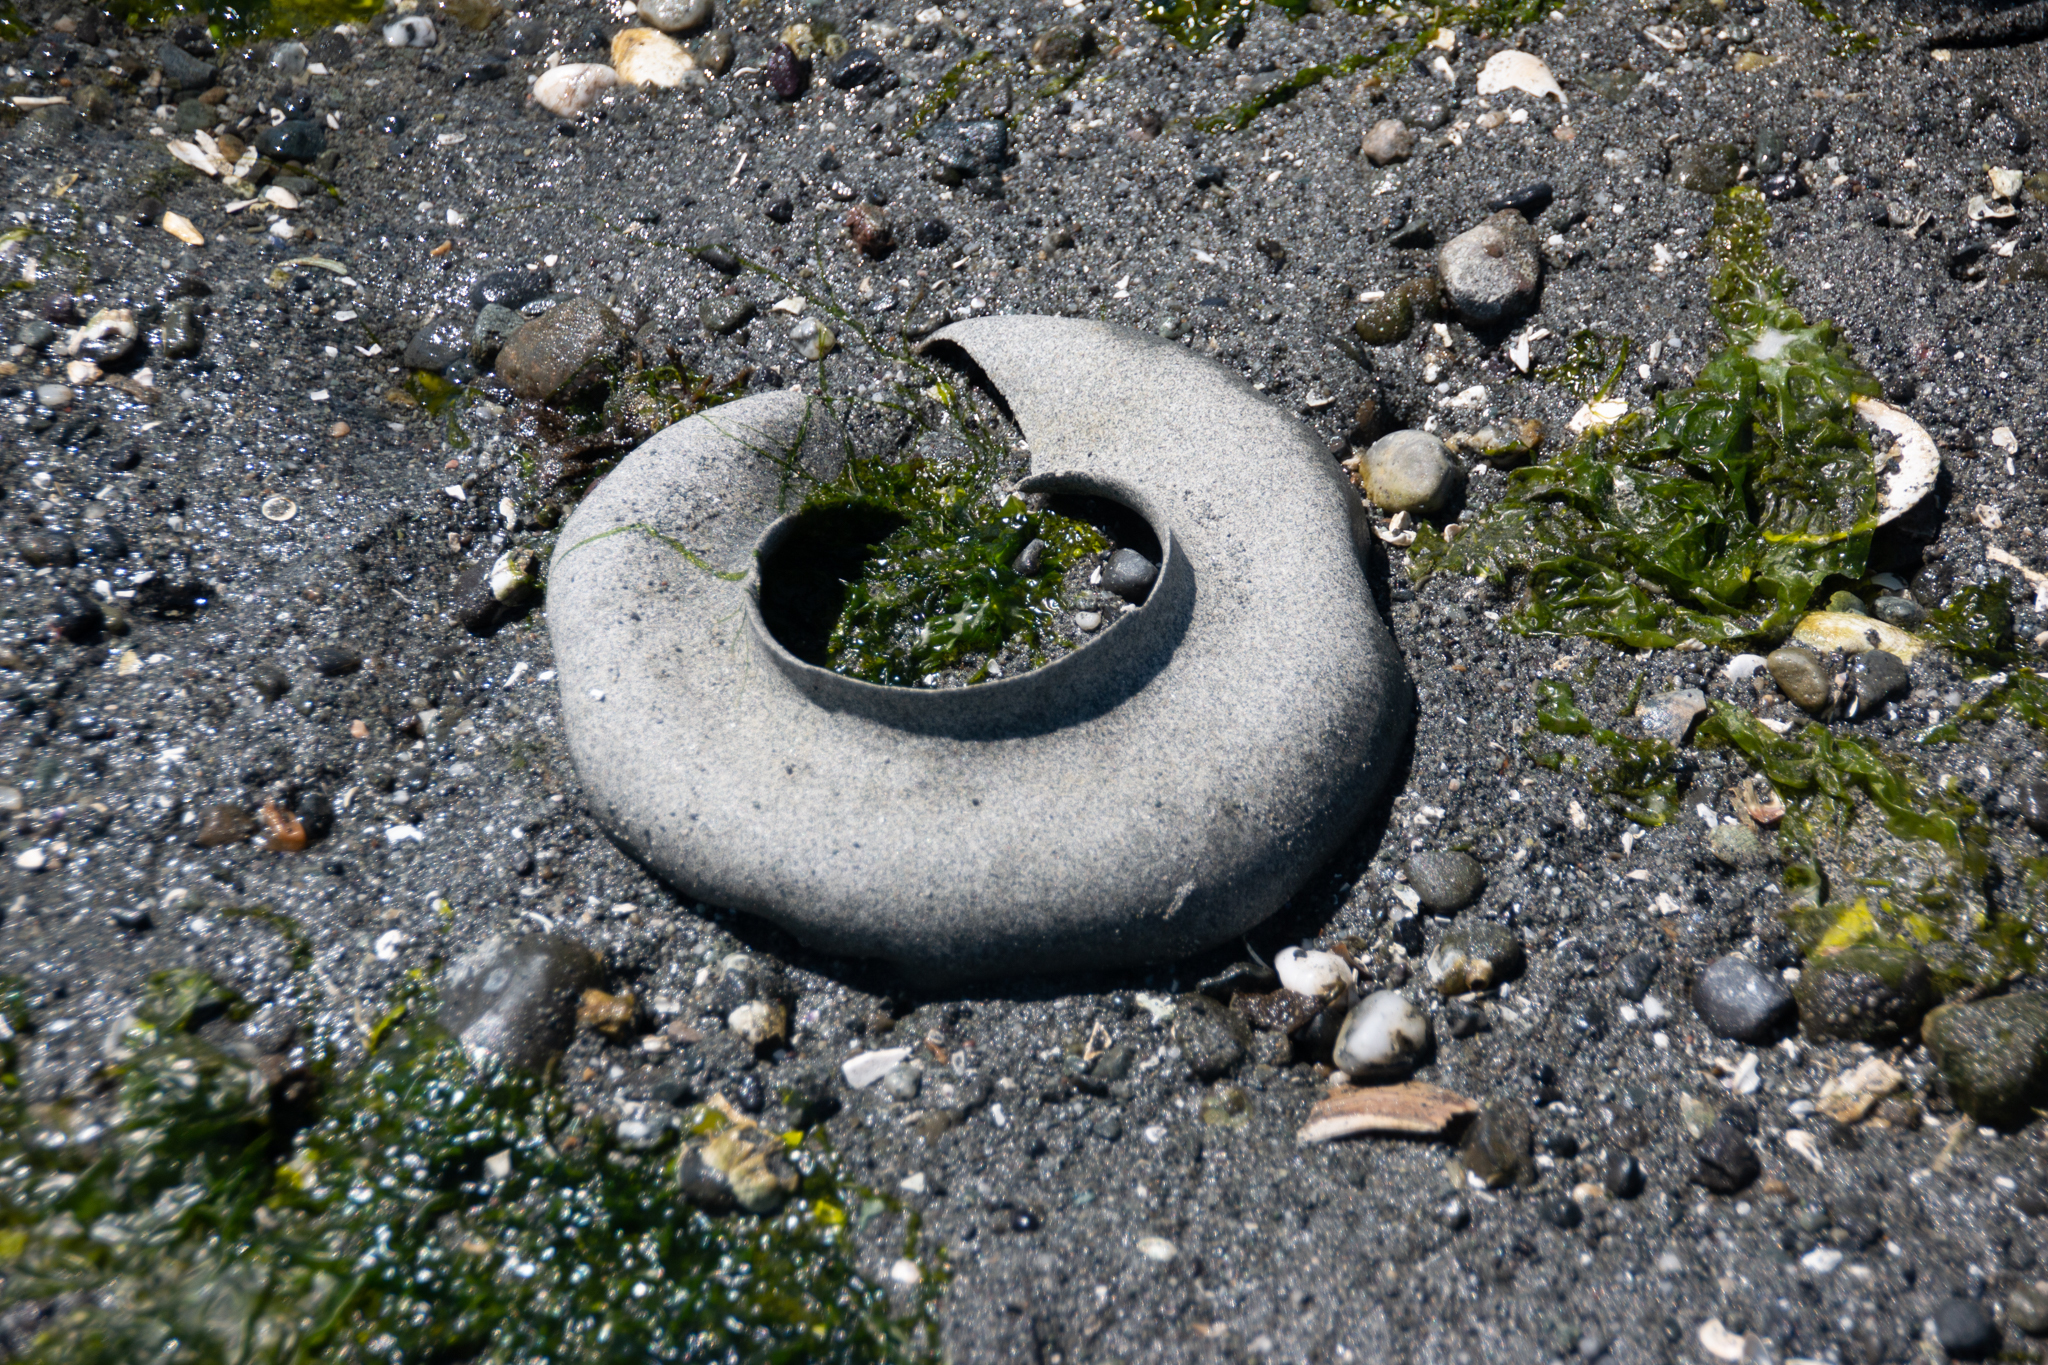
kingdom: Animalia
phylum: Mollusca
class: Gastropoda
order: Littorinimorpha
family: Naticidae
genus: Neverita
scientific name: Neverita lewisii
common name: Lewis' moonsnail
